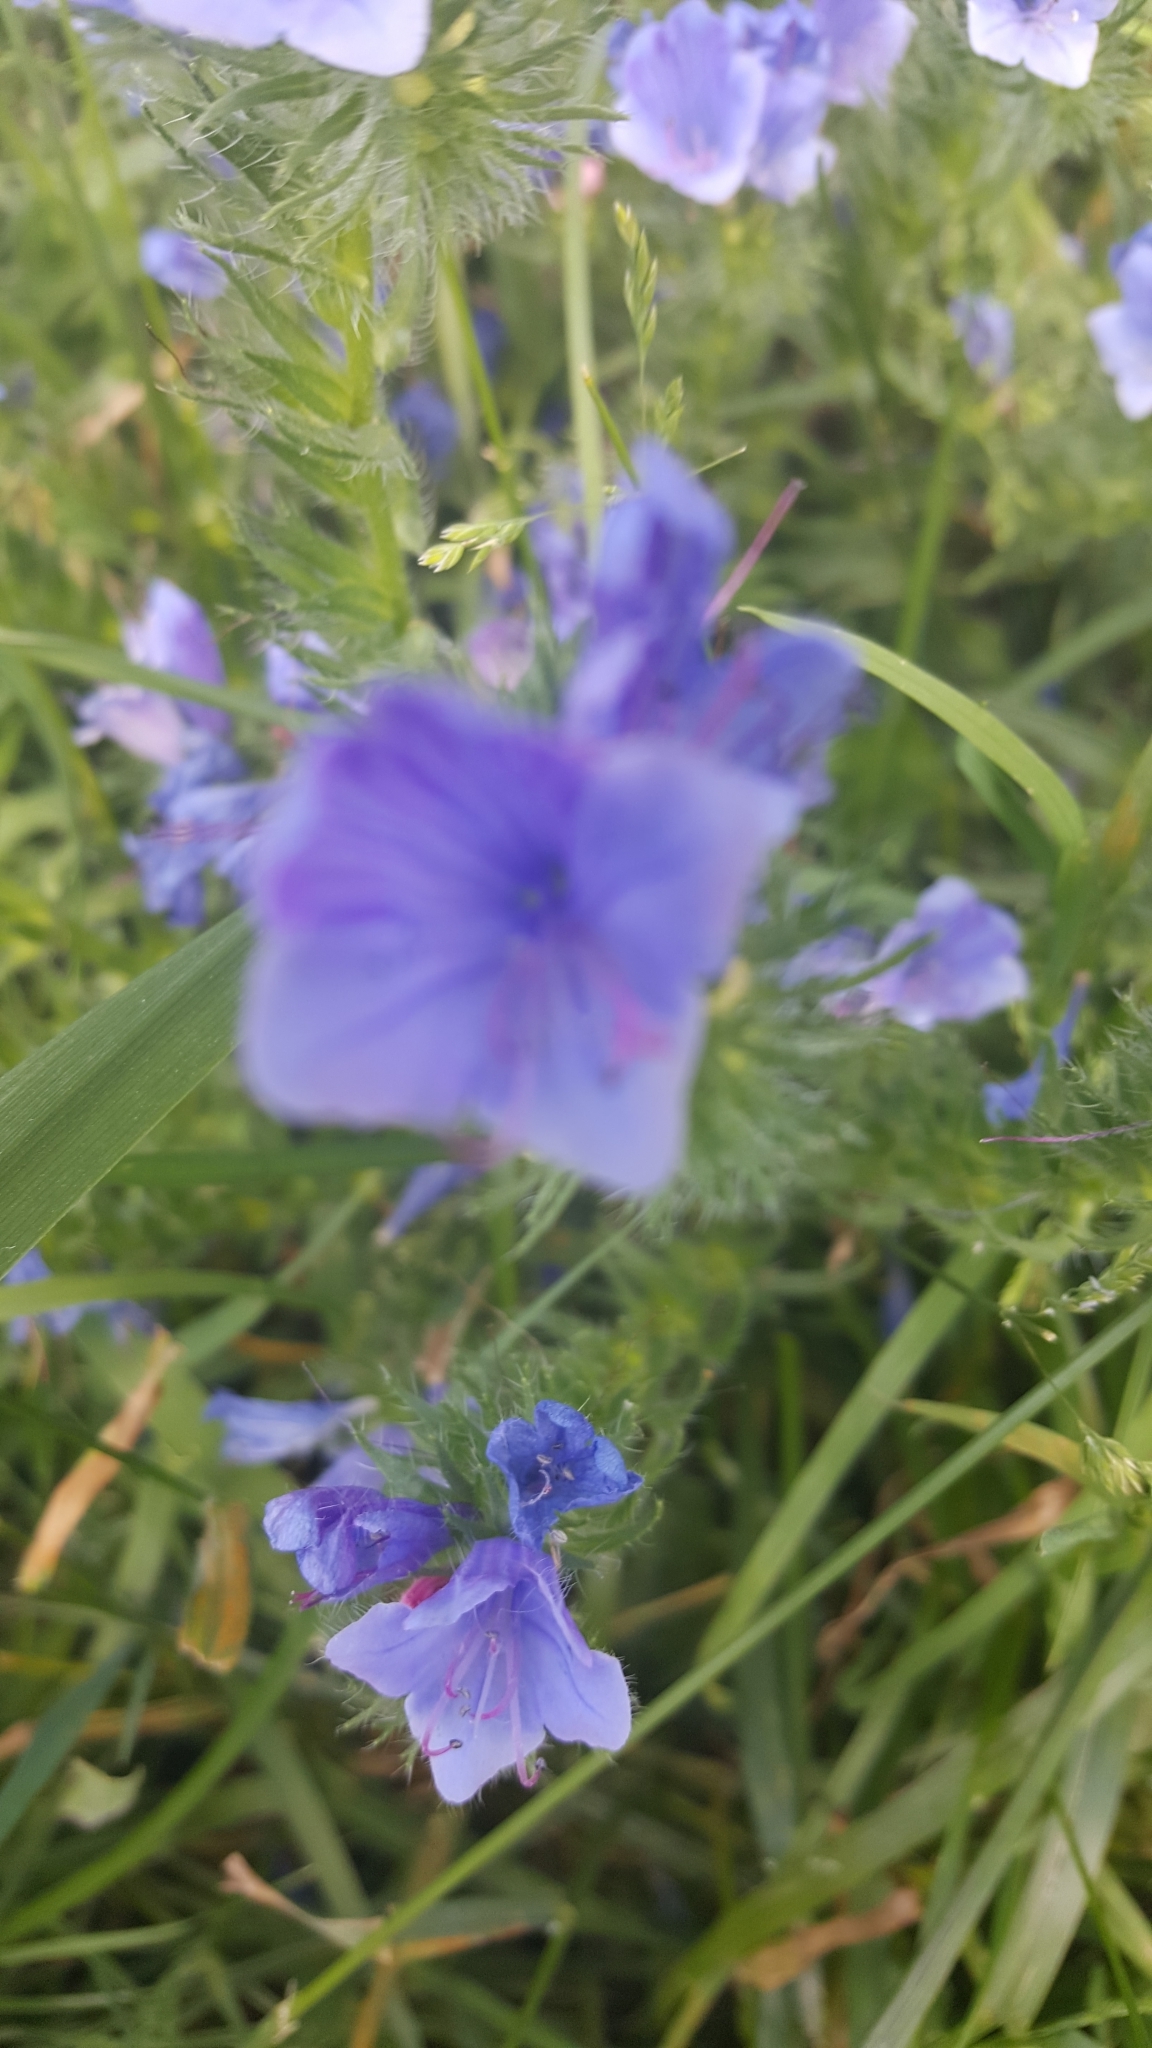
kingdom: Plantae
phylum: Tracheophyta
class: Magnoliopsida
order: Boraginales
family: Boraginaceae
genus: Echium
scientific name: Echium plantagineum
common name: Purple viper's-bugloss
